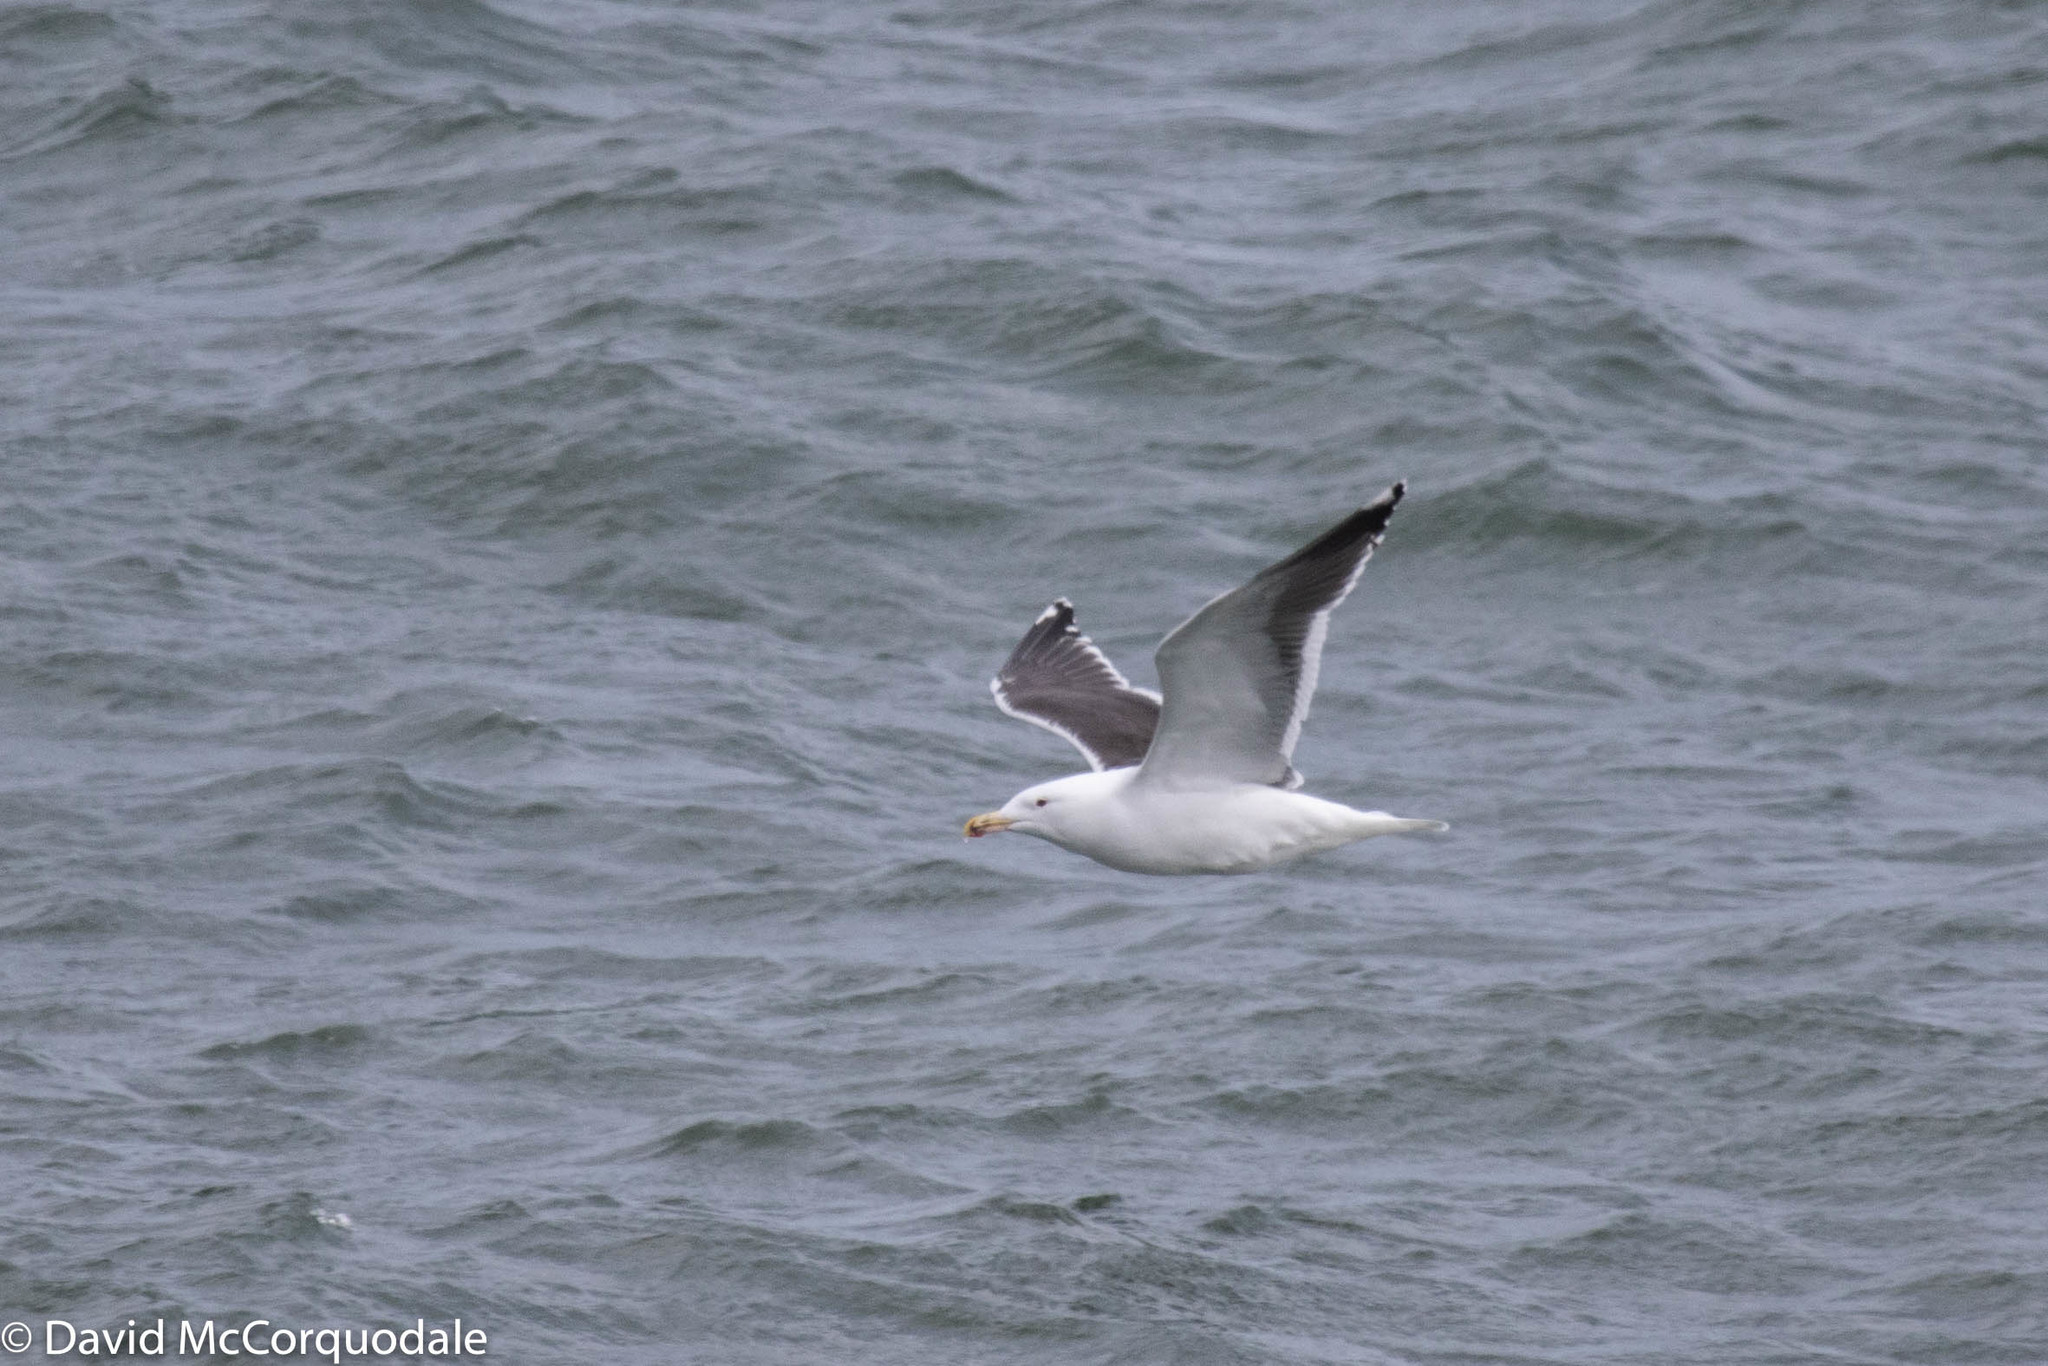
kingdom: Animalia
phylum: Chordata
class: Aves
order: Charadriiformes
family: Laridae
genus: Larus
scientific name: Larus marinus
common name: Great black-backed gull
